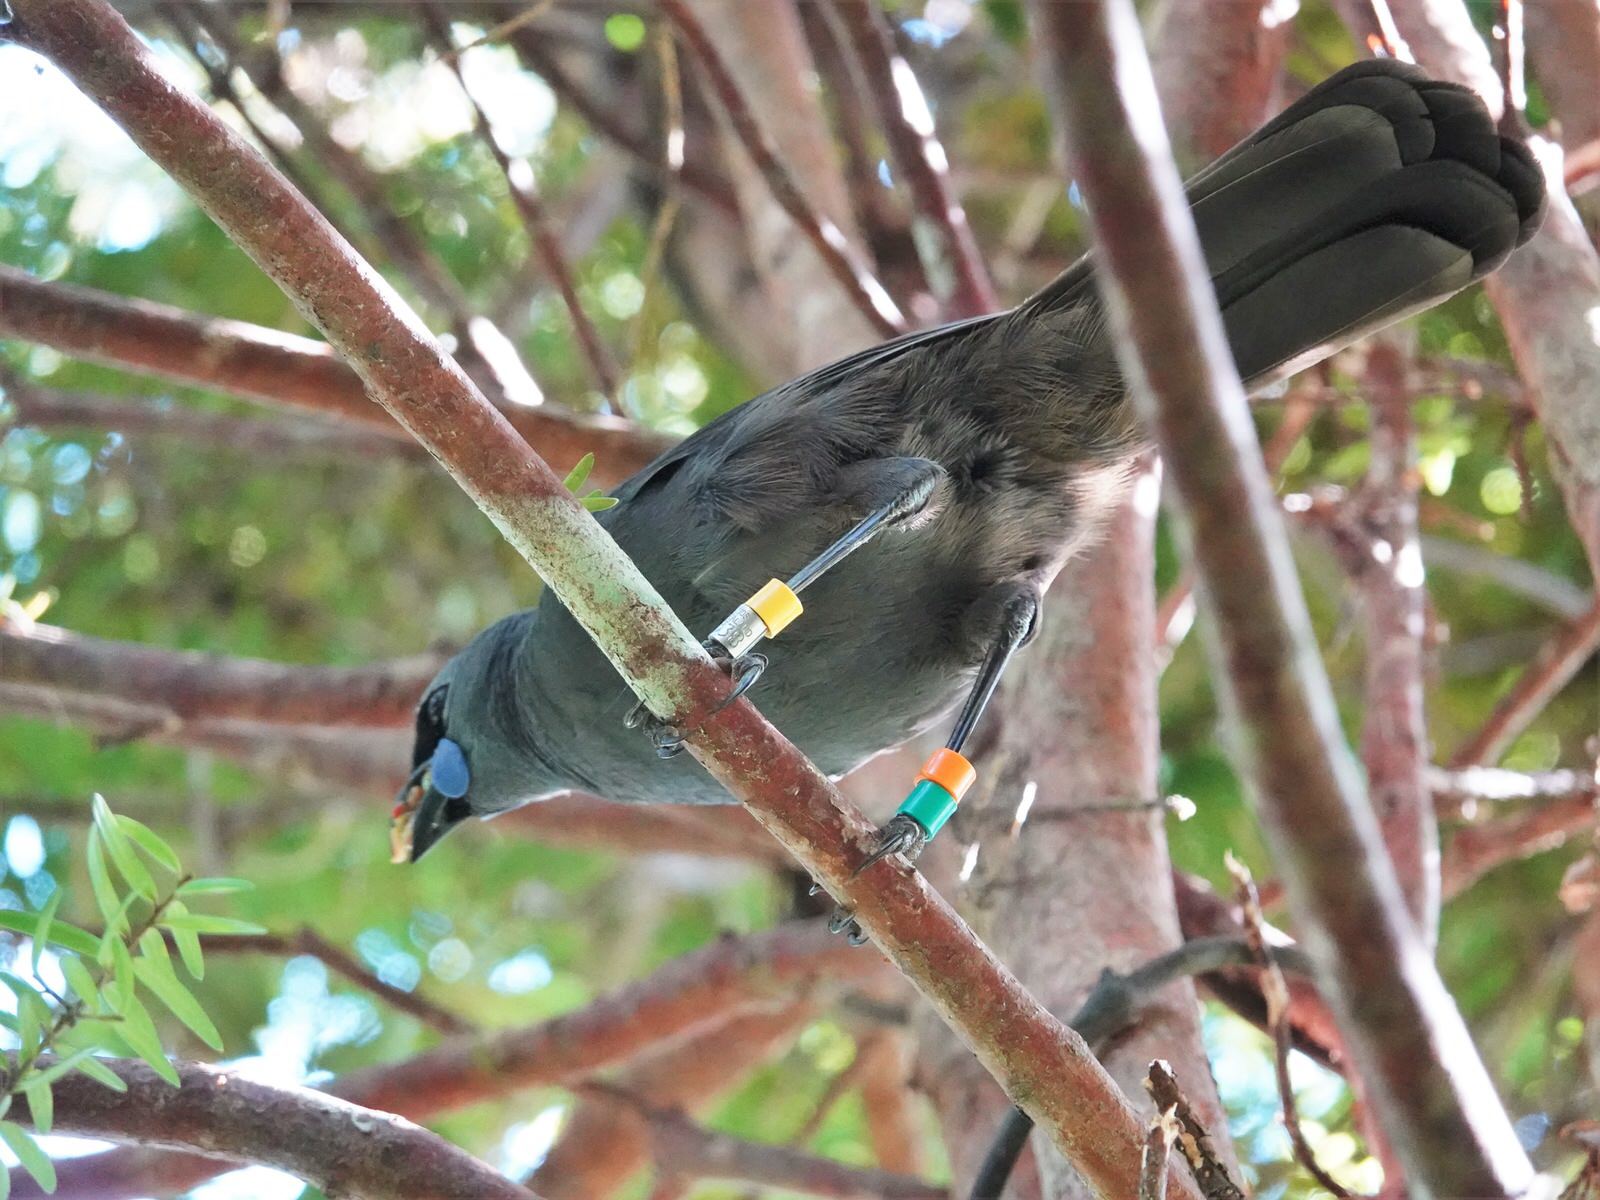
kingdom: Animalia
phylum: Chordata
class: Aves
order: Passeriformes
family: Callaeatidae
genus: Callaeas
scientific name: Callaeas cinereus
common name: South island kokako
